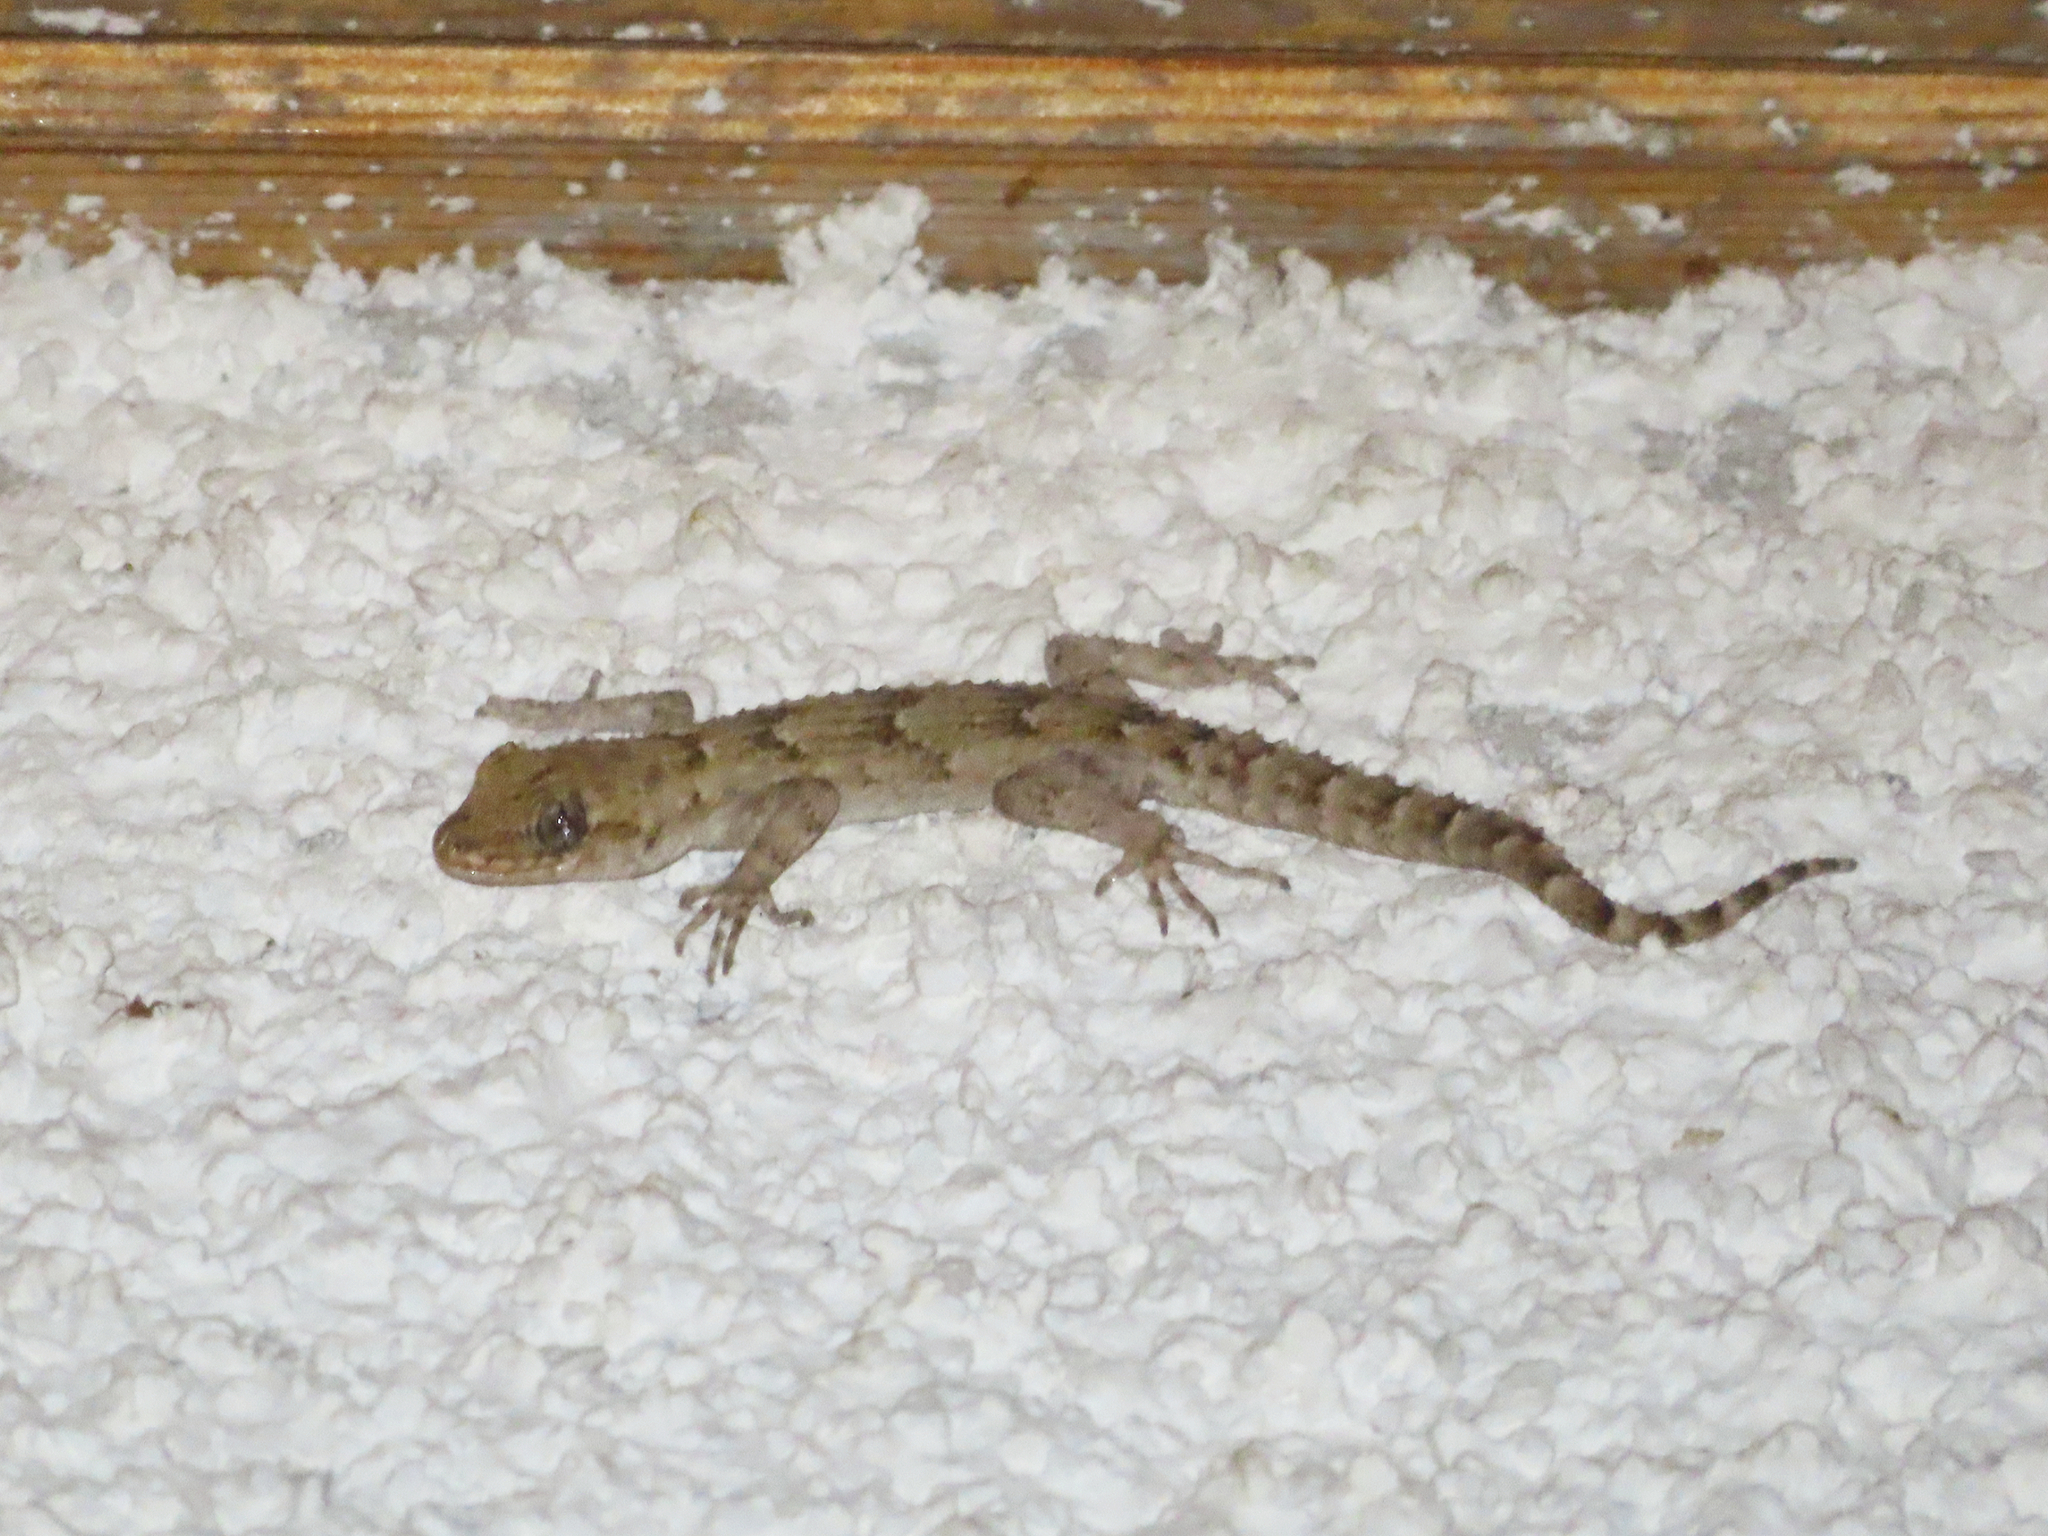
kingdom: Animalia
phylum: Chordata
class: Squamata
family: Gekkonidae
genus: Mediodactylus
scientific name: Mediodactylus kotschyi
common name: Kotschy's gecko
